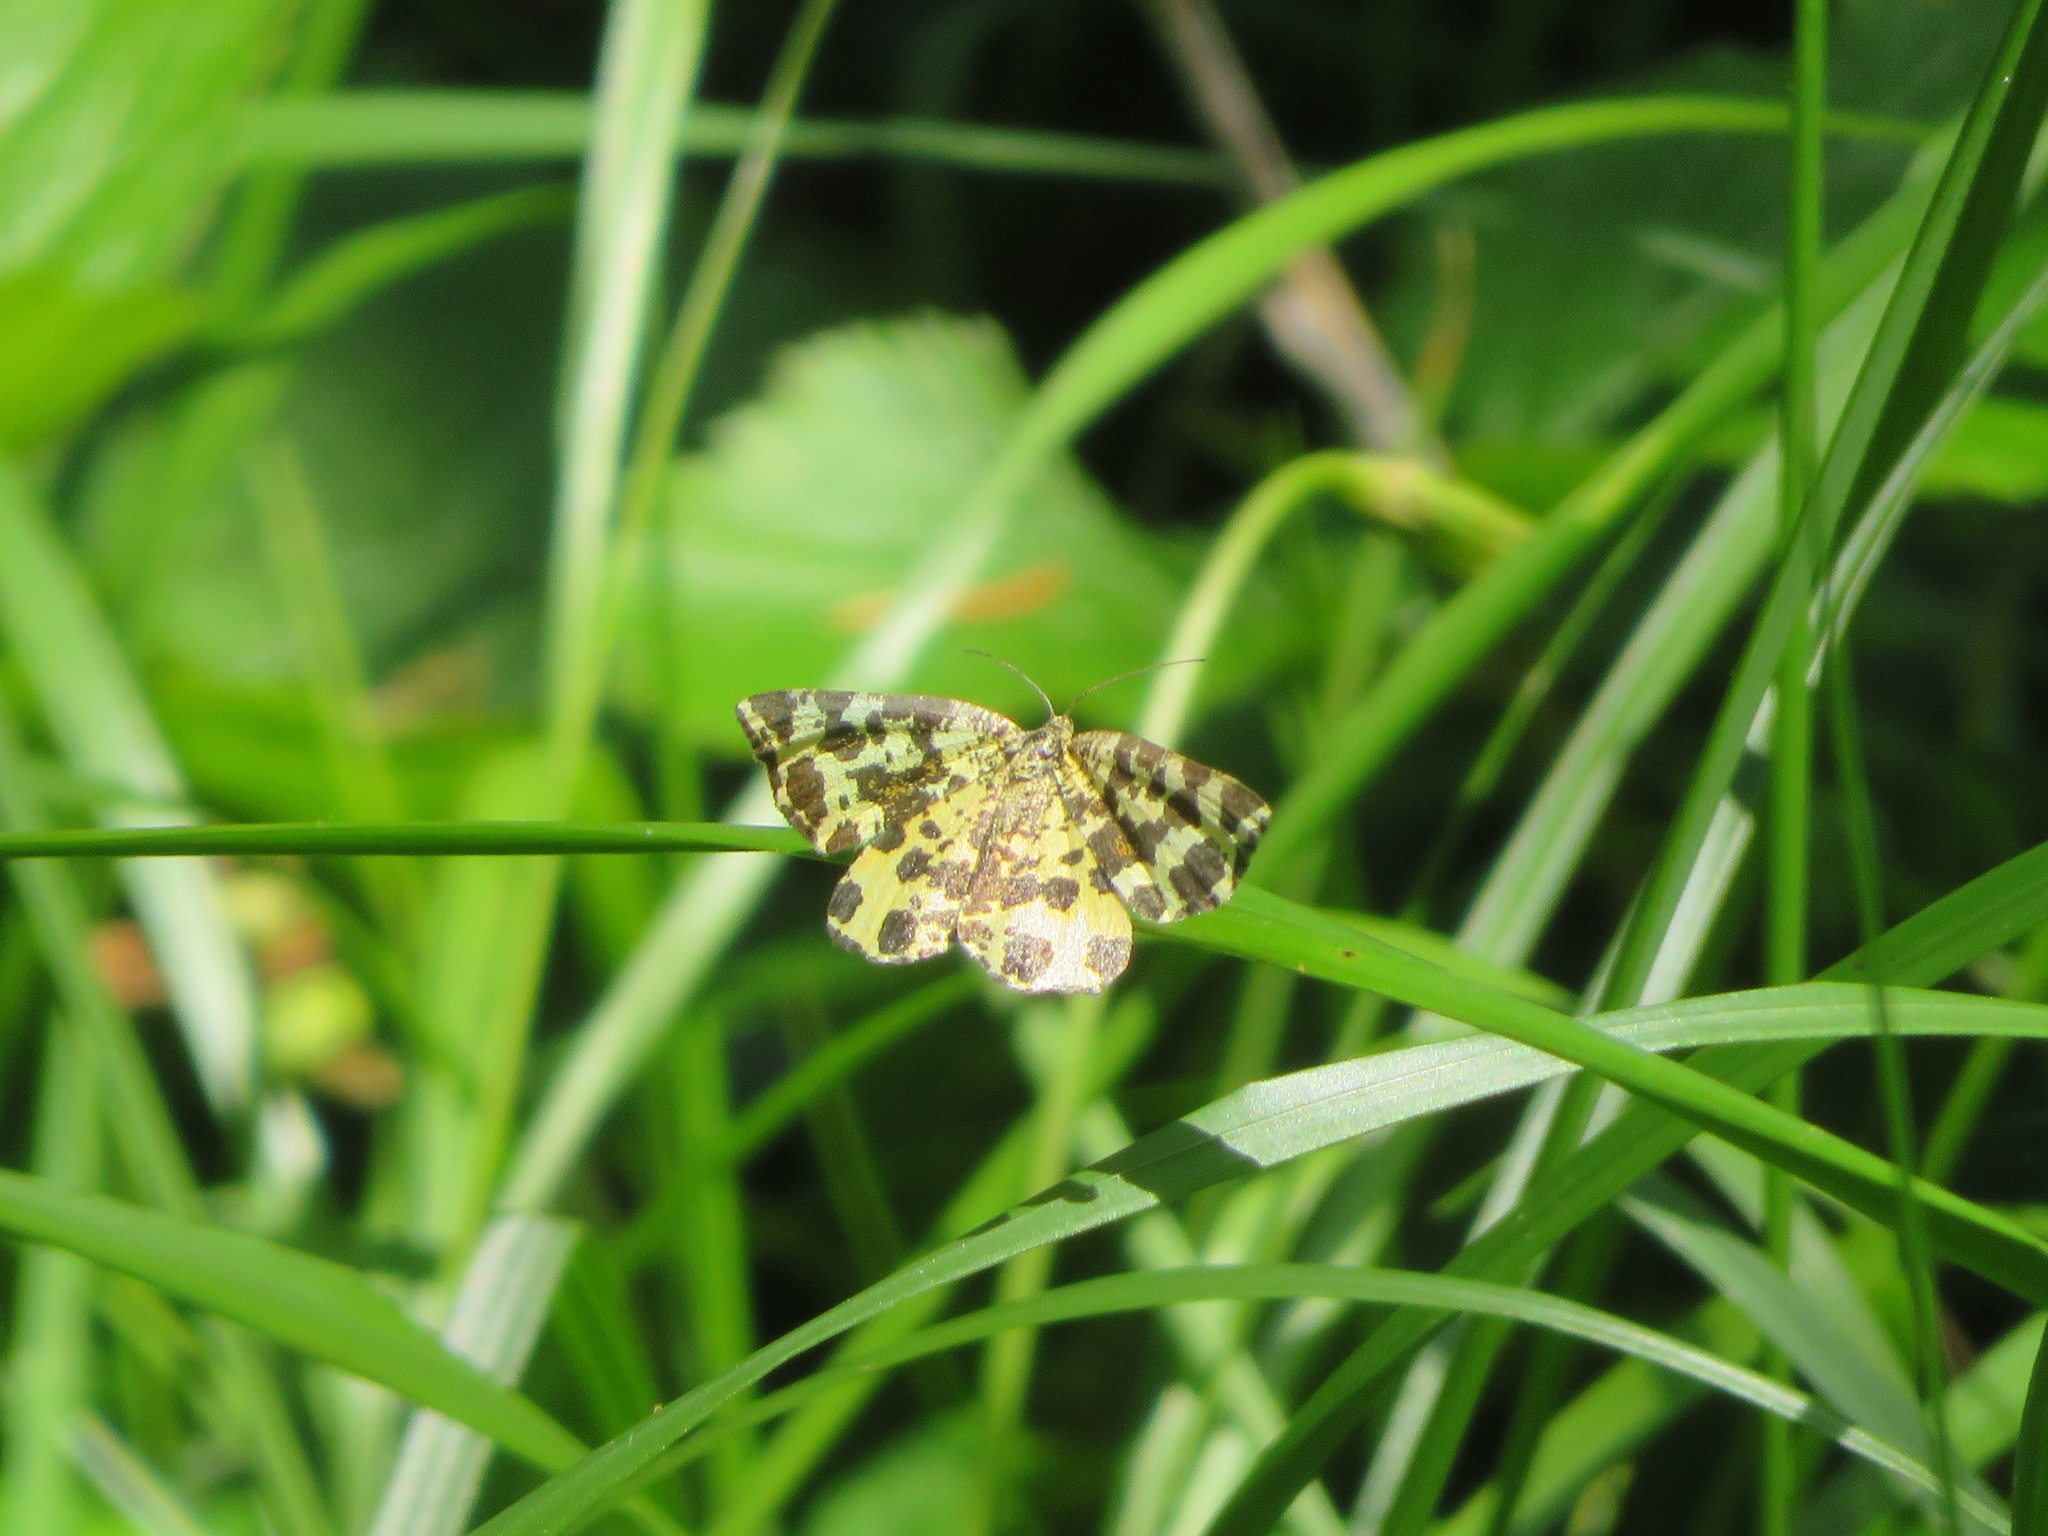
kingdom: Animalia
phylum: Arthropoda
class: Insecta
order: Lepidoptera
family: Geometridae
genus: Pseudopanthera
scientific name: Pseudopanthera macularia
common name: Speckled yellow
